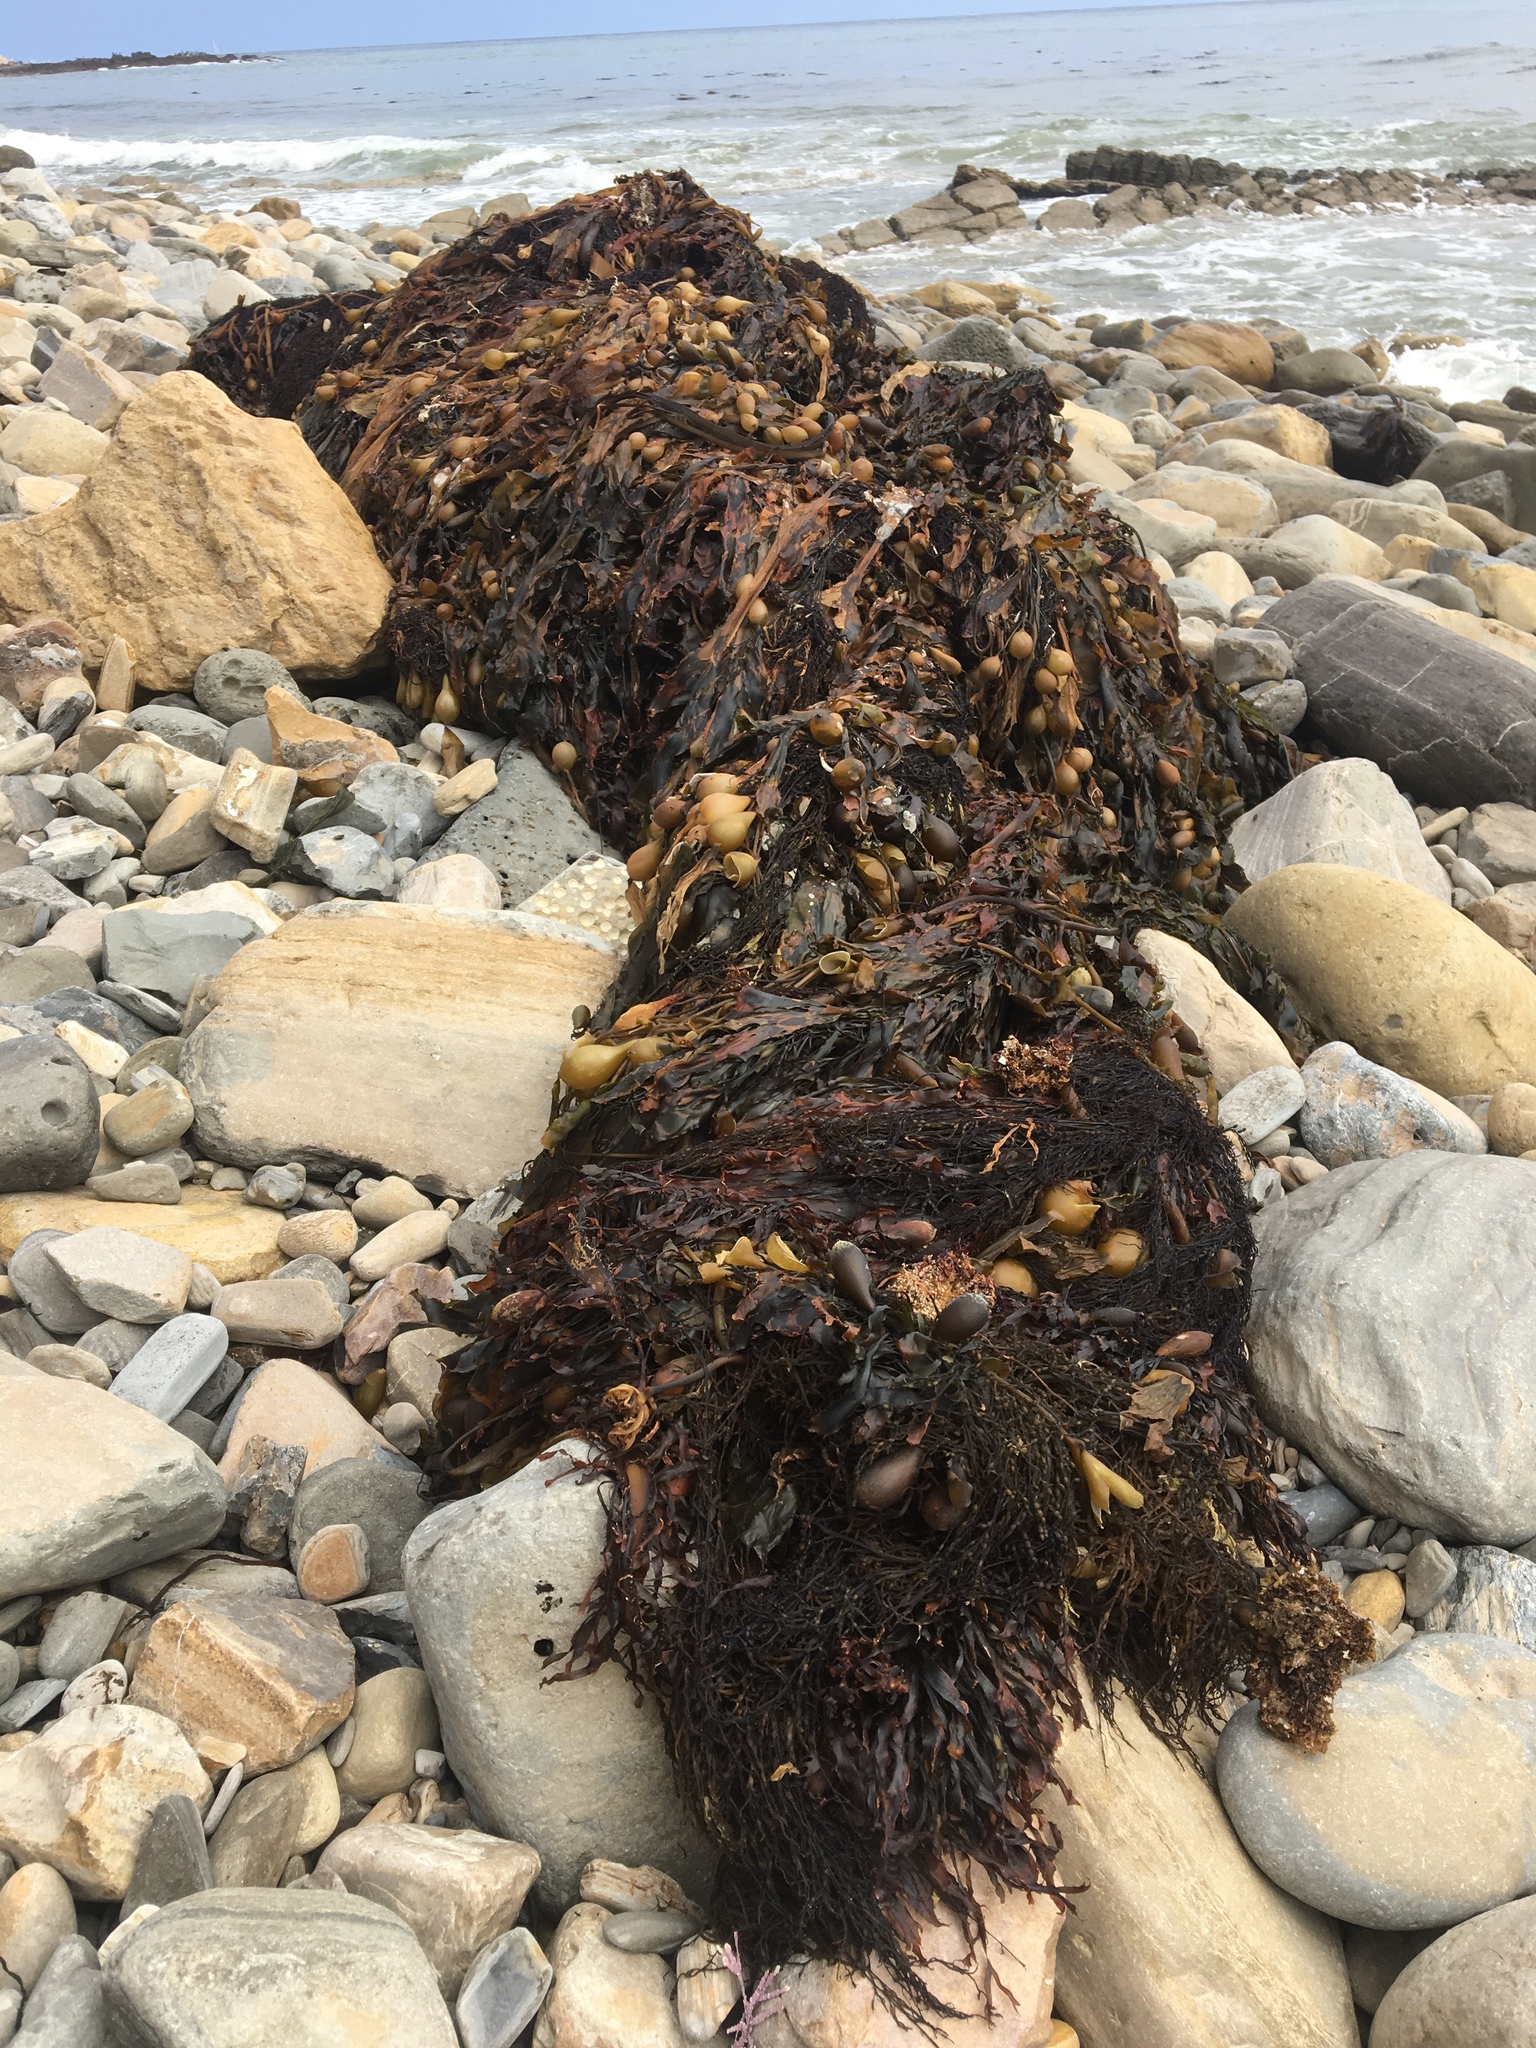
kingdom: Chromista
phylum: Ochrophyta
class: Phaeophyceae
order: Laminariales
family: Laminariaceae
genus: Macrocystis
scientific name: Macrocystis pyrifera
